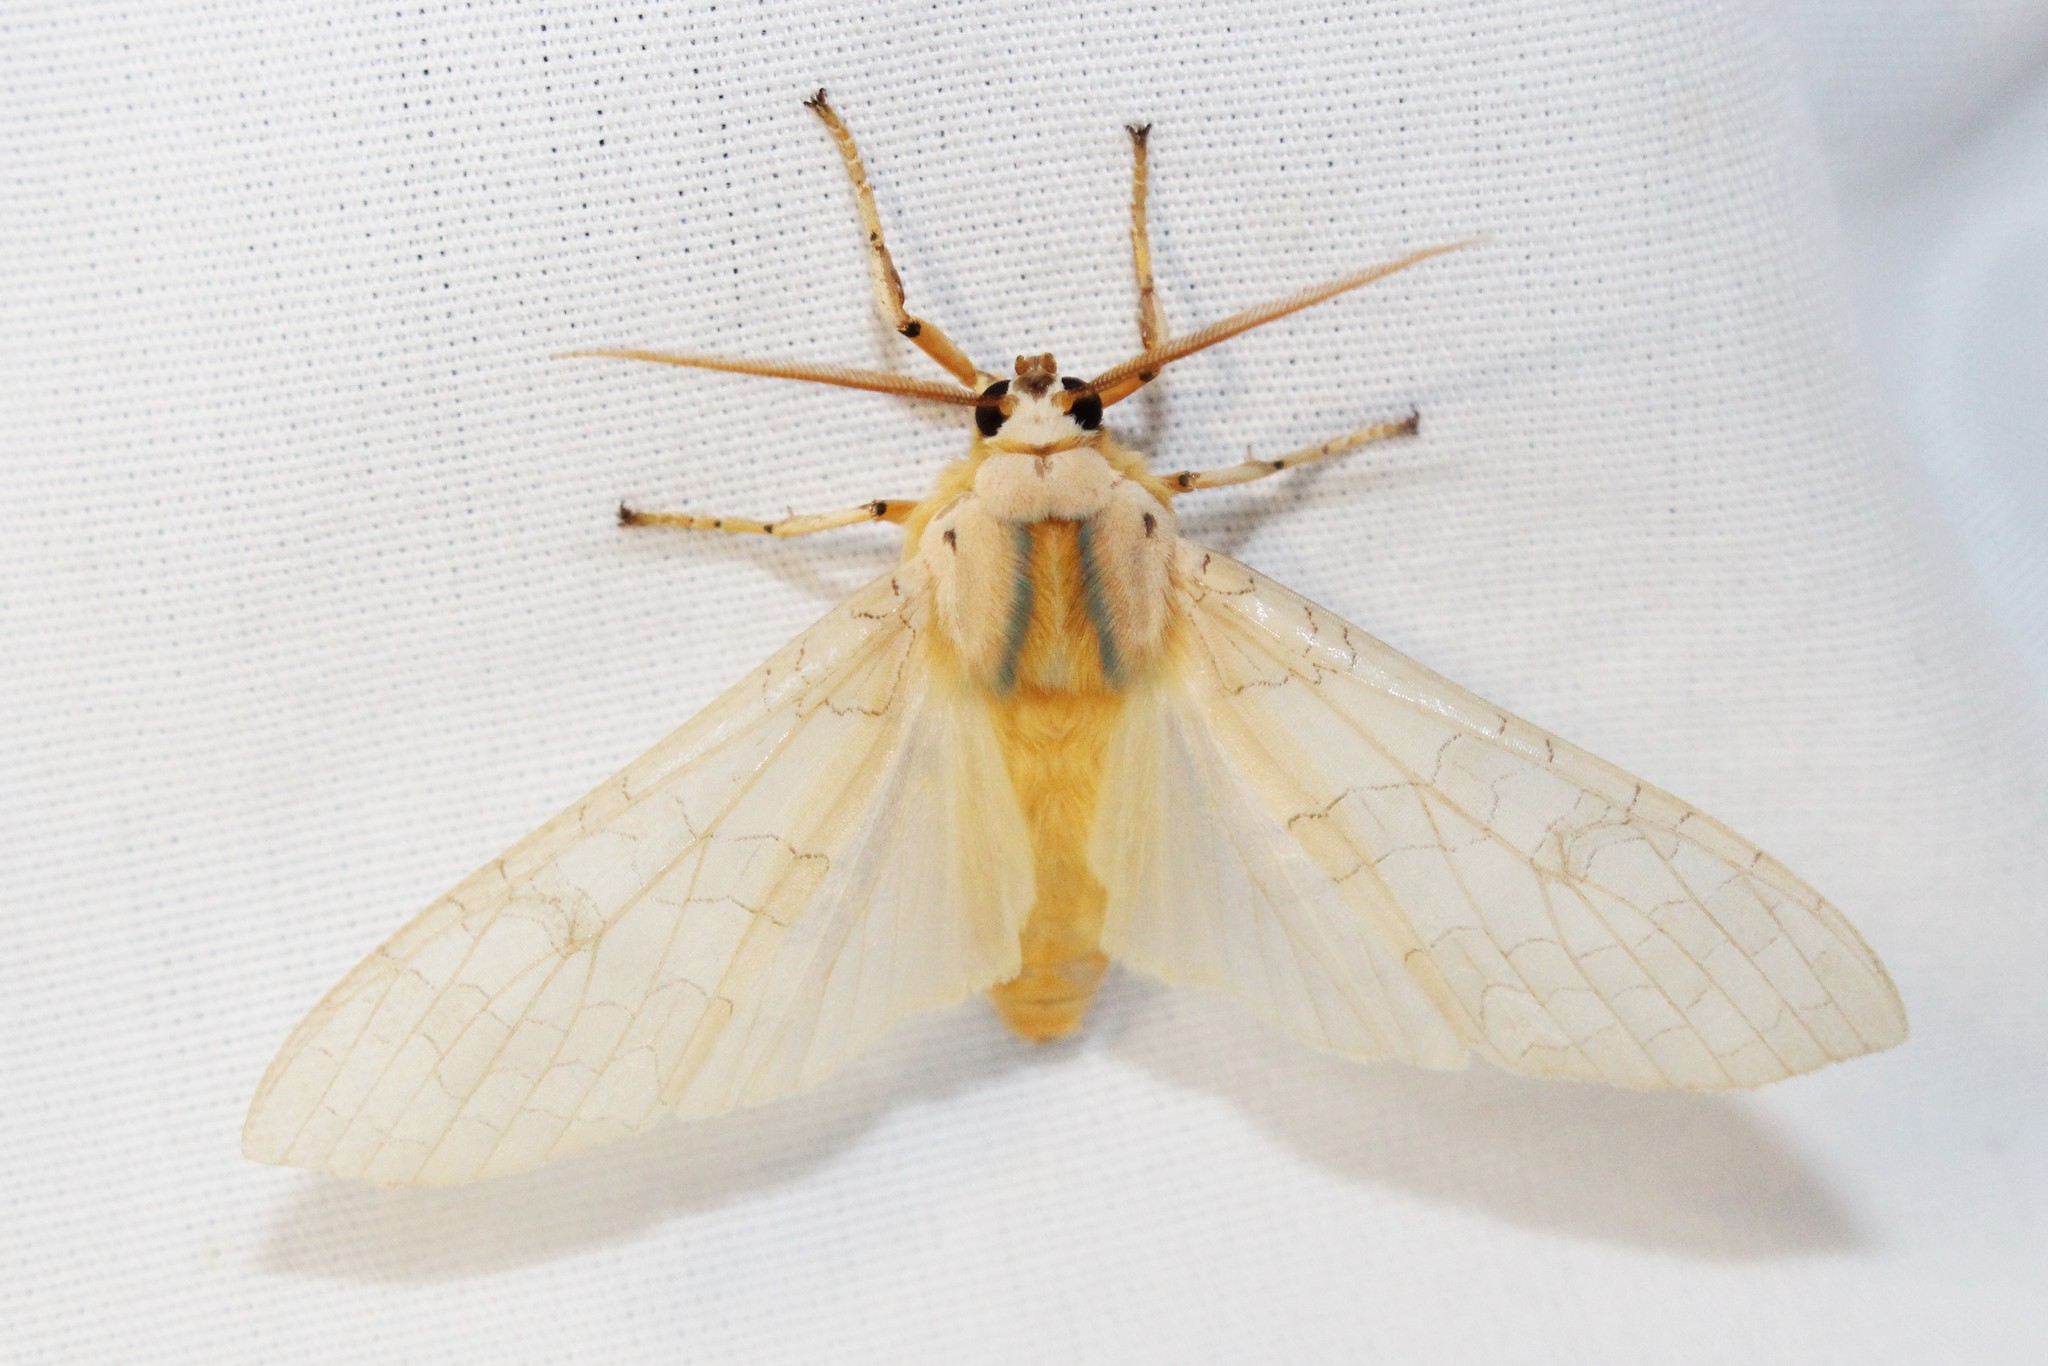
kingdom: Animalia
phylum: Arthropoda
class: Insecta
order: Lepidoptera
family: Erebidae
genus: Halysidota
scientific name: Halysidota tessellaris
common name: Banded tussock moth
